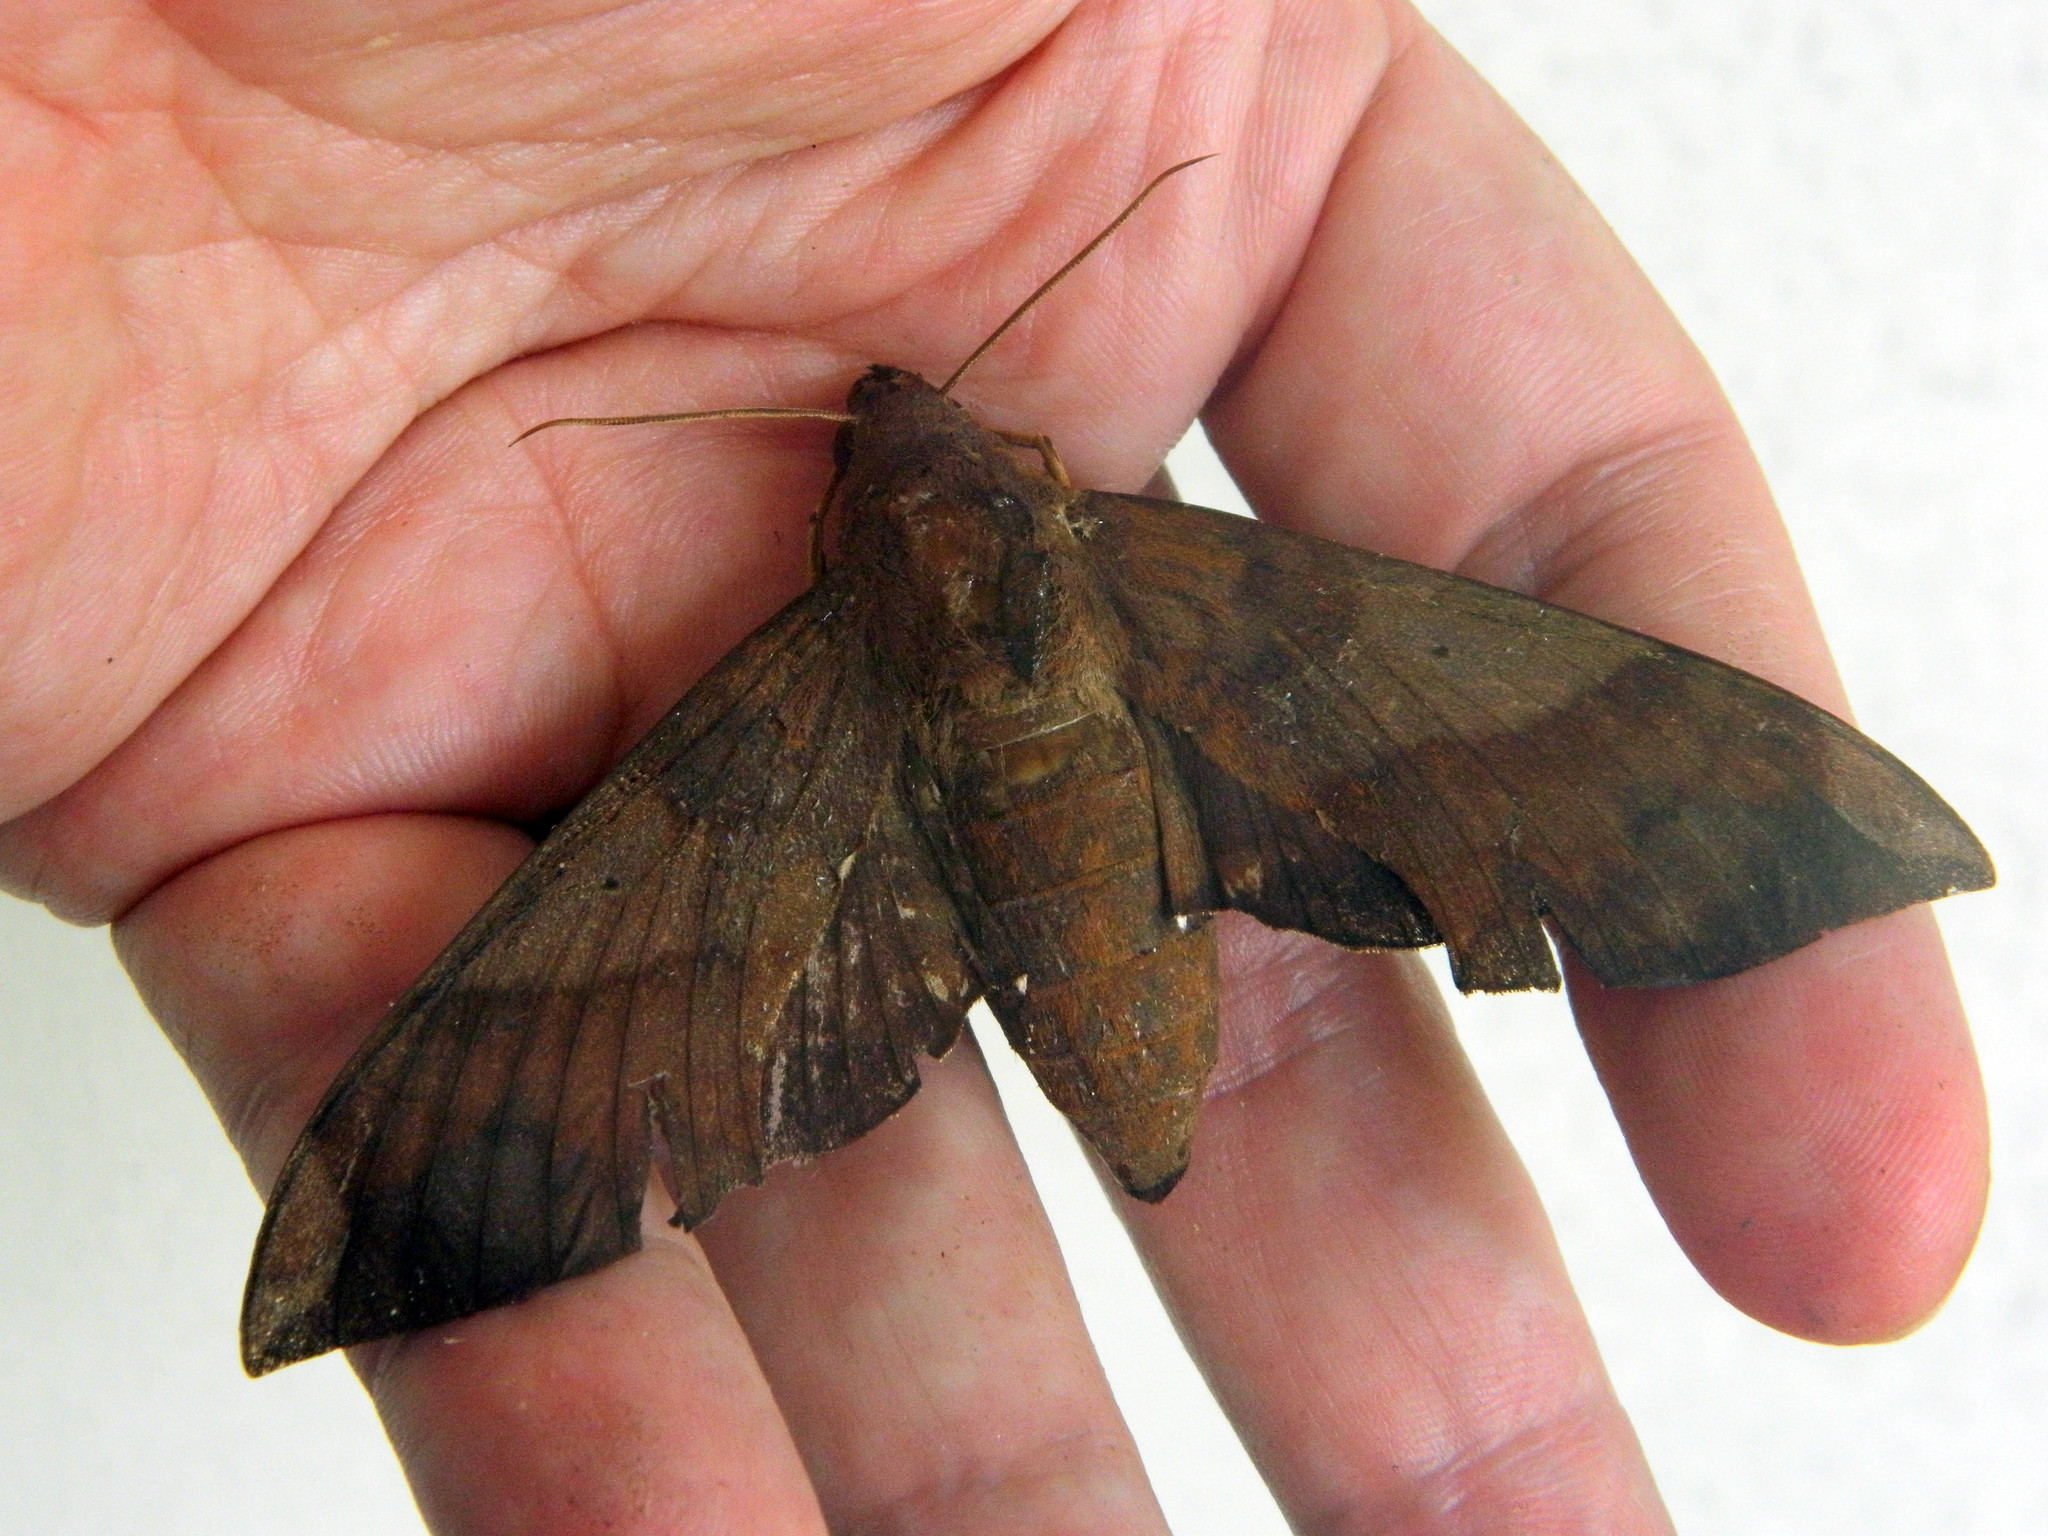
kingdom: Animalia
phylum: Arthropoda
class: Insecta
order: Lepidoptera
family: Sphingidae
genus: Pachylia
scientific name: Pachylia syces
